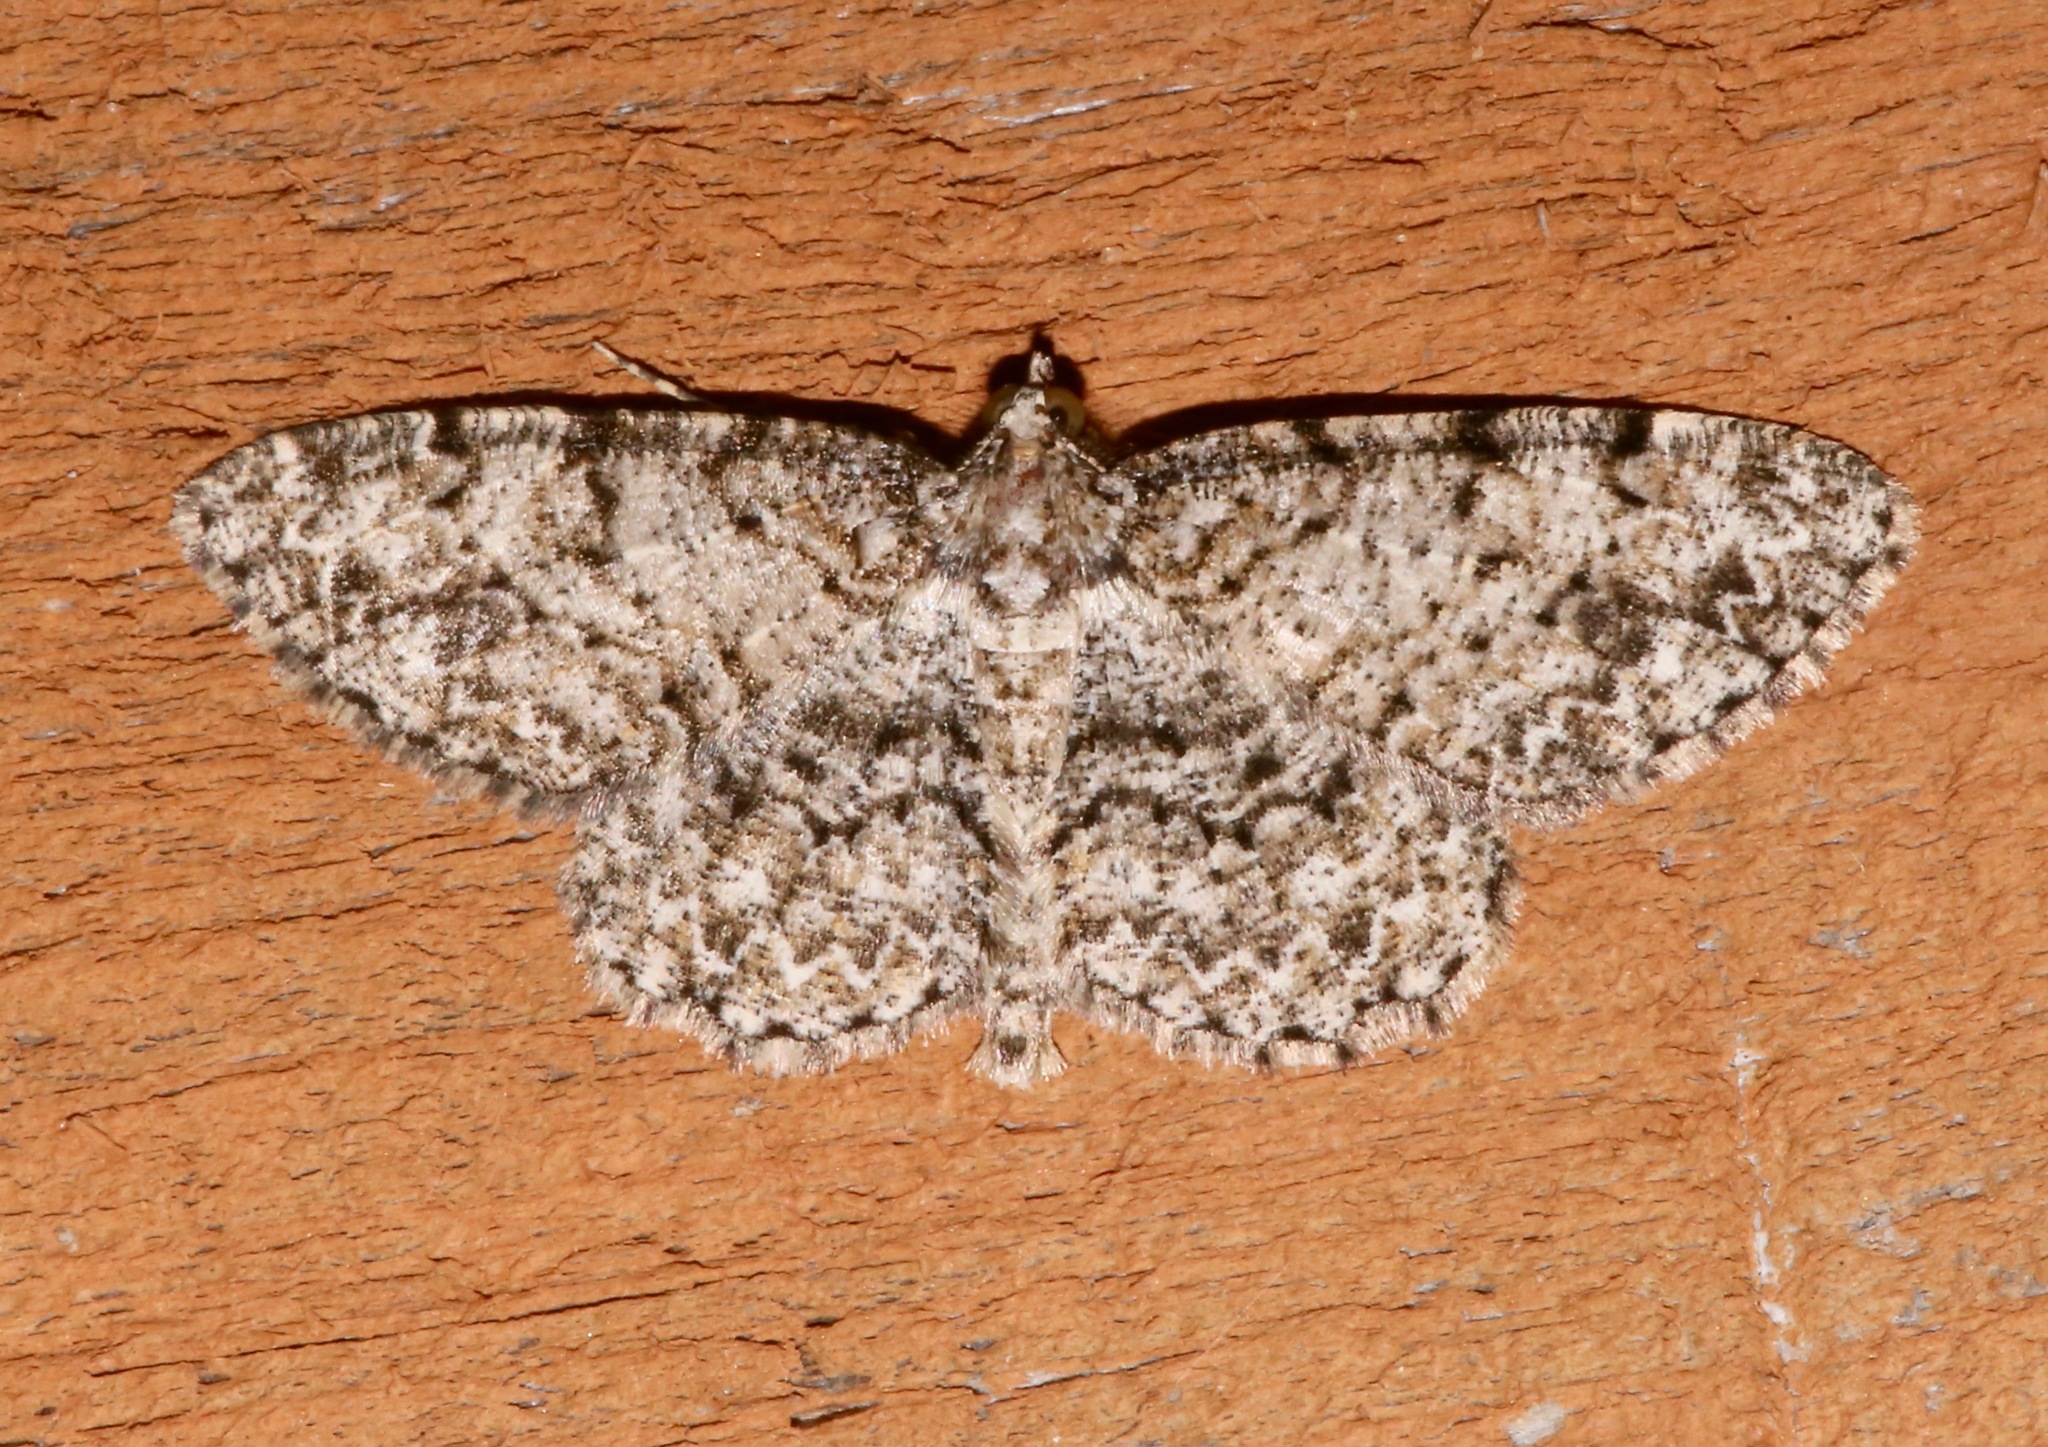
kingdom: Animalia
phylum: Arthropoda
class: Insecta
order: Lepidoptera
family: Geometridae
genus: Protoboarmia
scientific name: Protoboarmia porcelaria
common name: Porcelain gray
